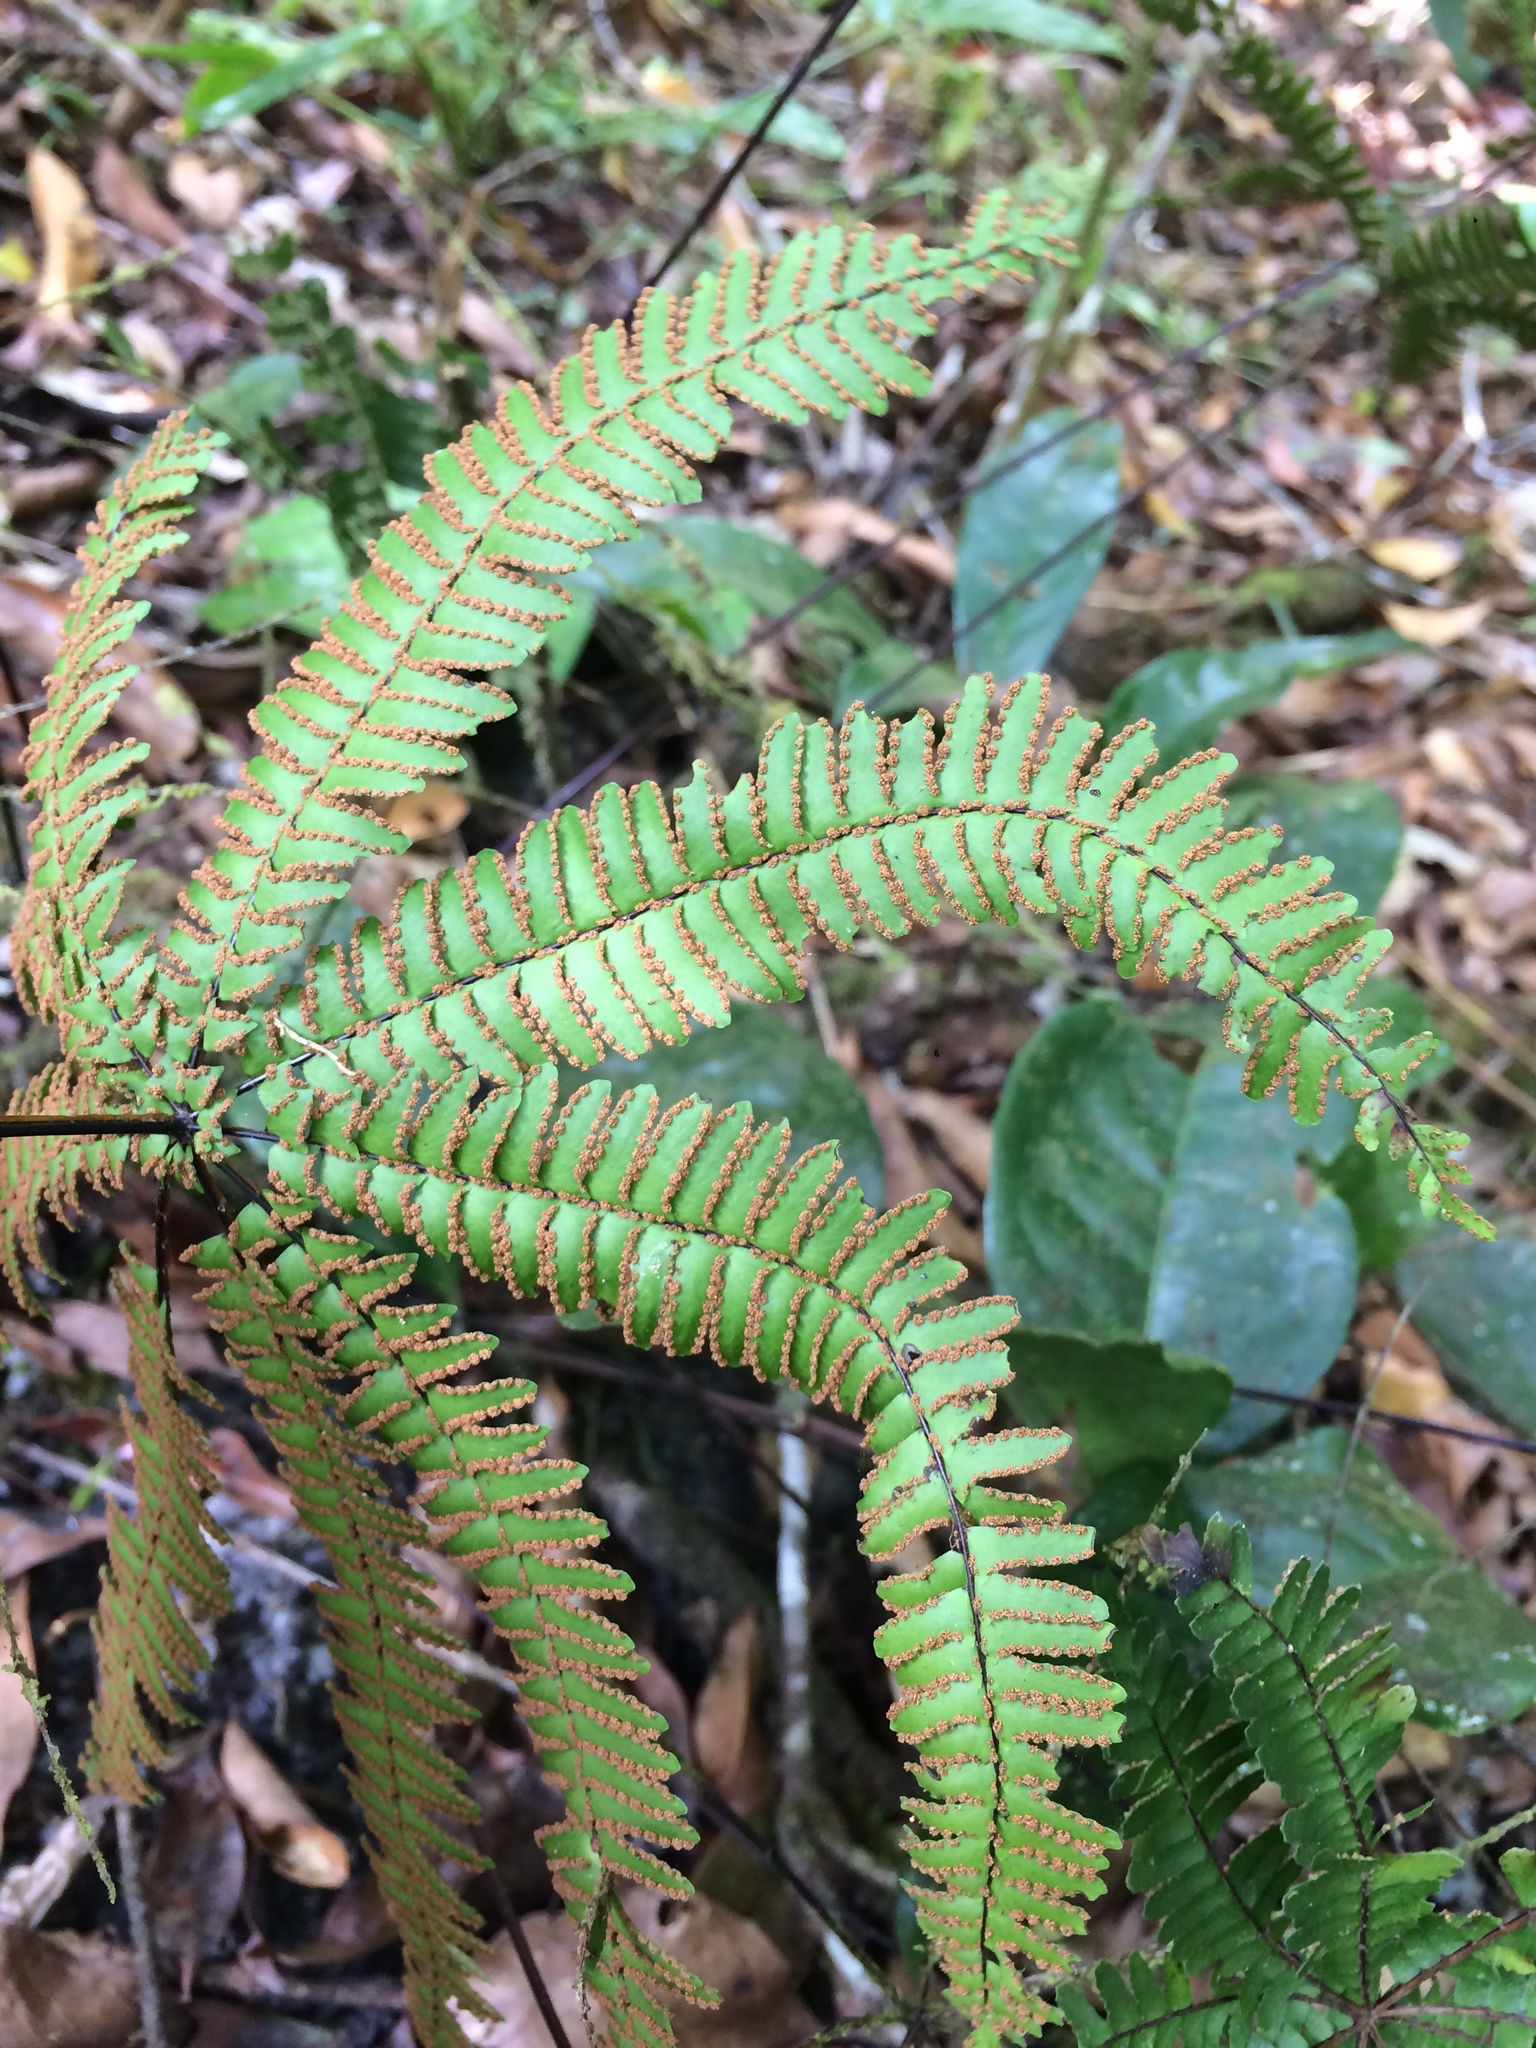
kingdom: Plantae
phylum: Tracheophyta
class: Polypodiopsida
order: Polypodiales
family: Pteridaceae
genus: Adiantopsis
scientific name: Adiantopsis radiata
